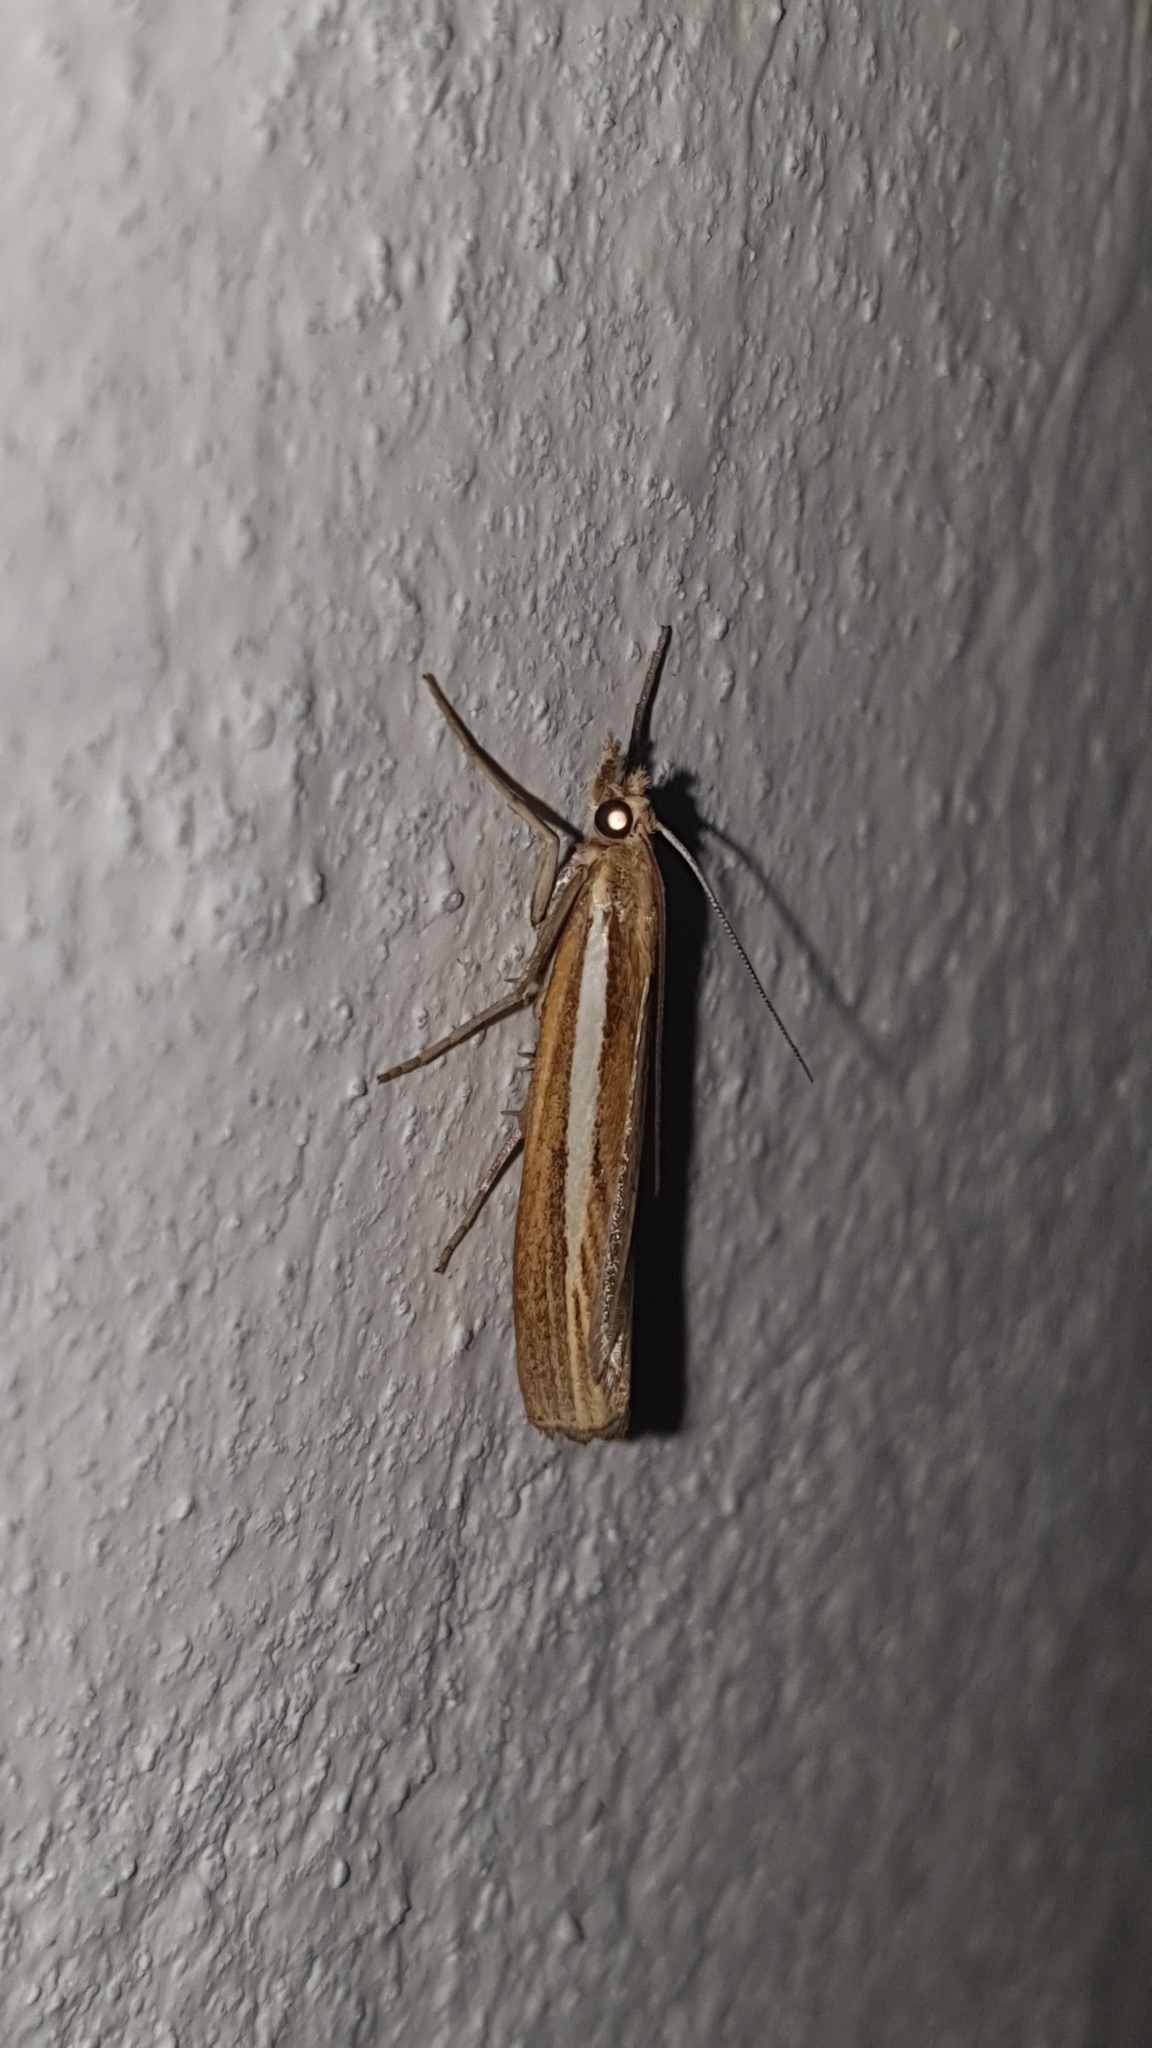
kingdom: Animalia
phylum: Arthropoda
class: Insecta
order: Lepidoptera
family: Crambidae
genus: Agriphila
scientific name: Agriphila tristellus
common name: Common grass-veneer
